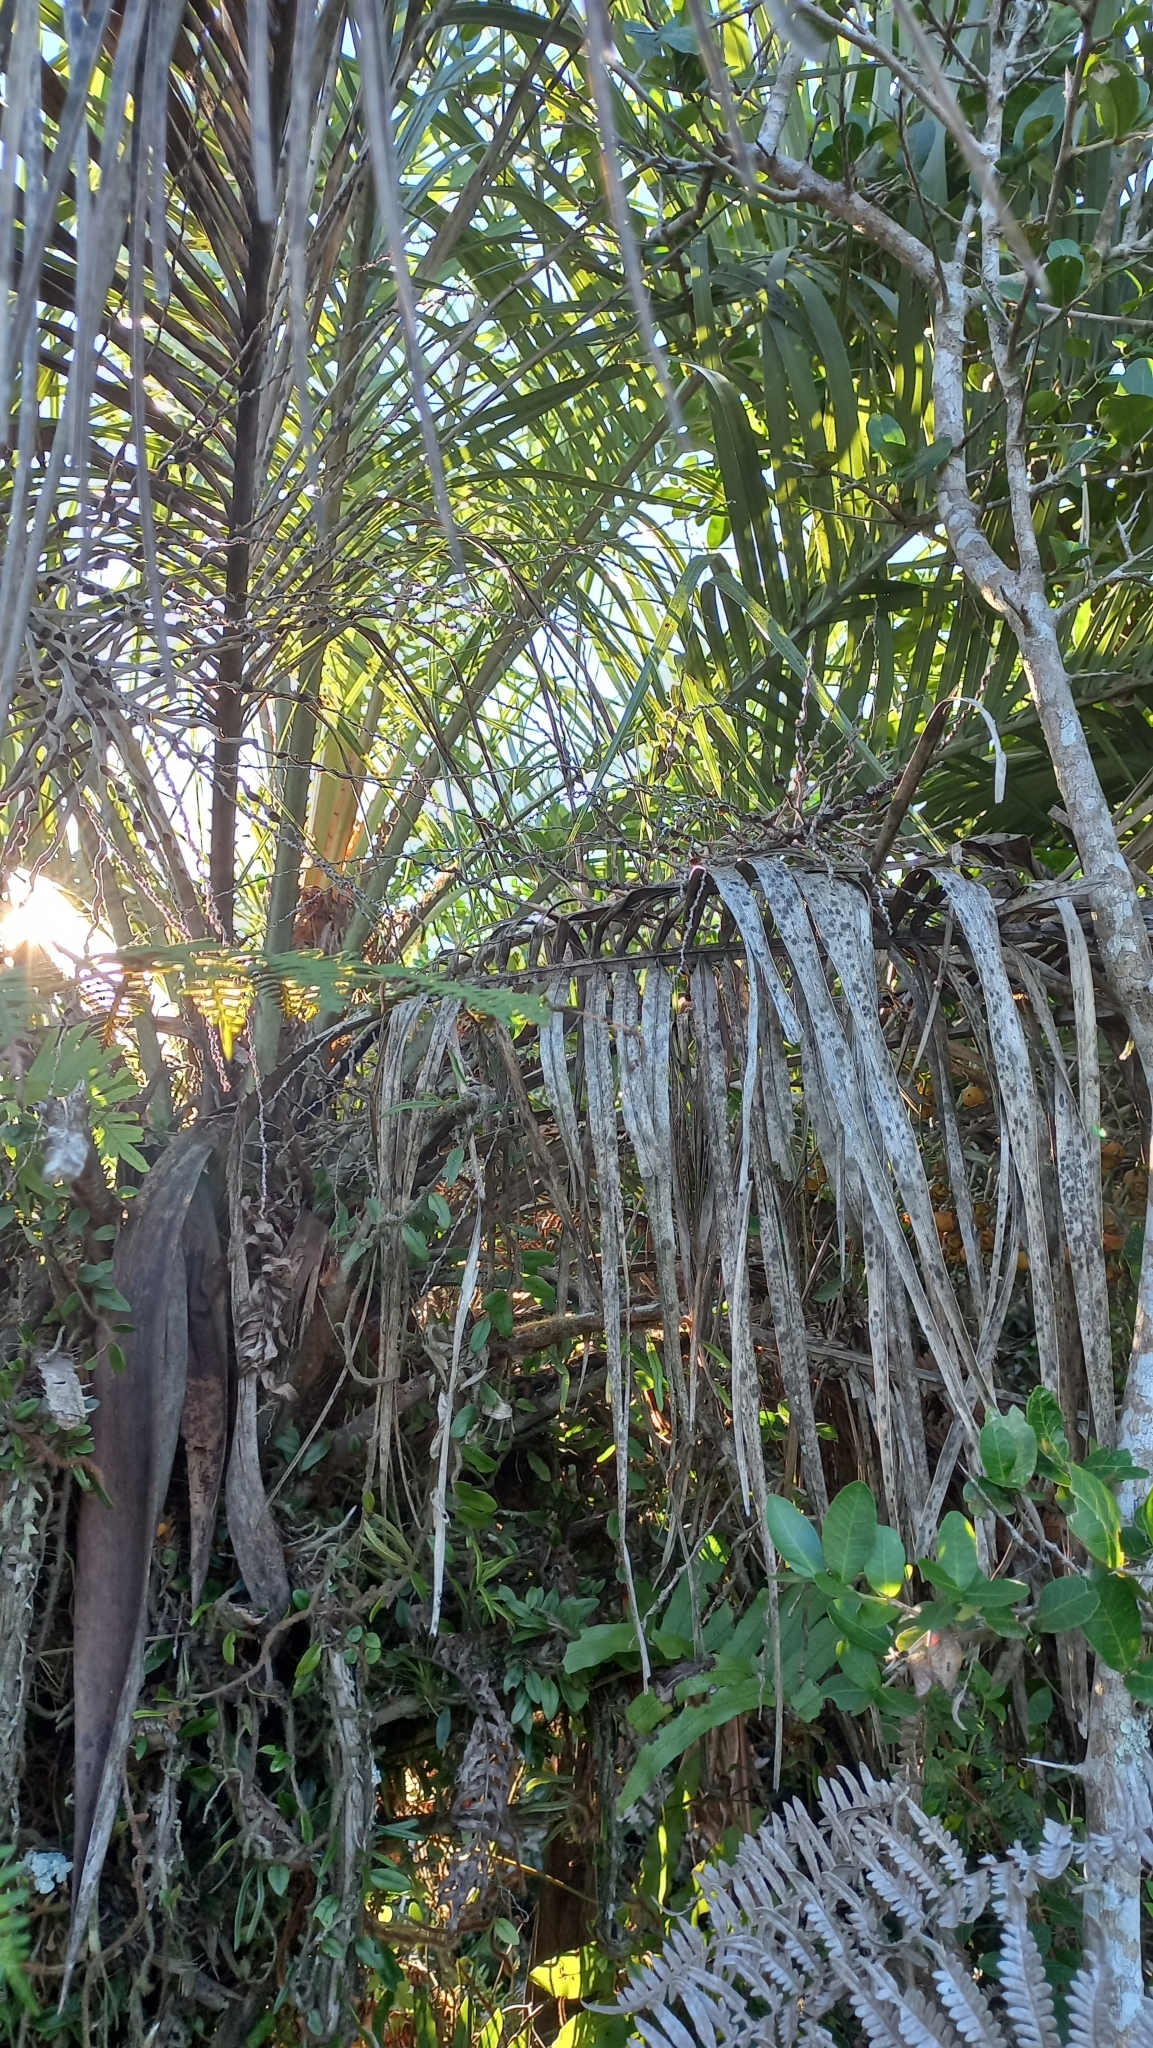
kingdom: Plantae
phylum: Tracheophyta
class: Liliopsida
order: Arecales
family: Arecaceae
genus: Butia
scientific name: Butia catarinensis
